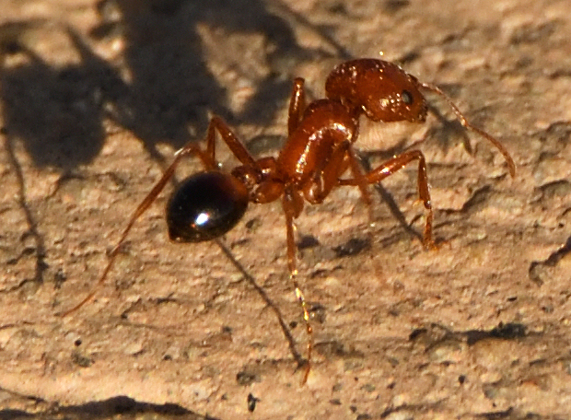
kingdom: Animalia
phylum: Arthropoda
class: Insecta
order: Hymenoptera
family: Formicidae
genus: Pogonomyrmex
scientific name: Pogonomyrmex californicus
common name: California harvester ant
